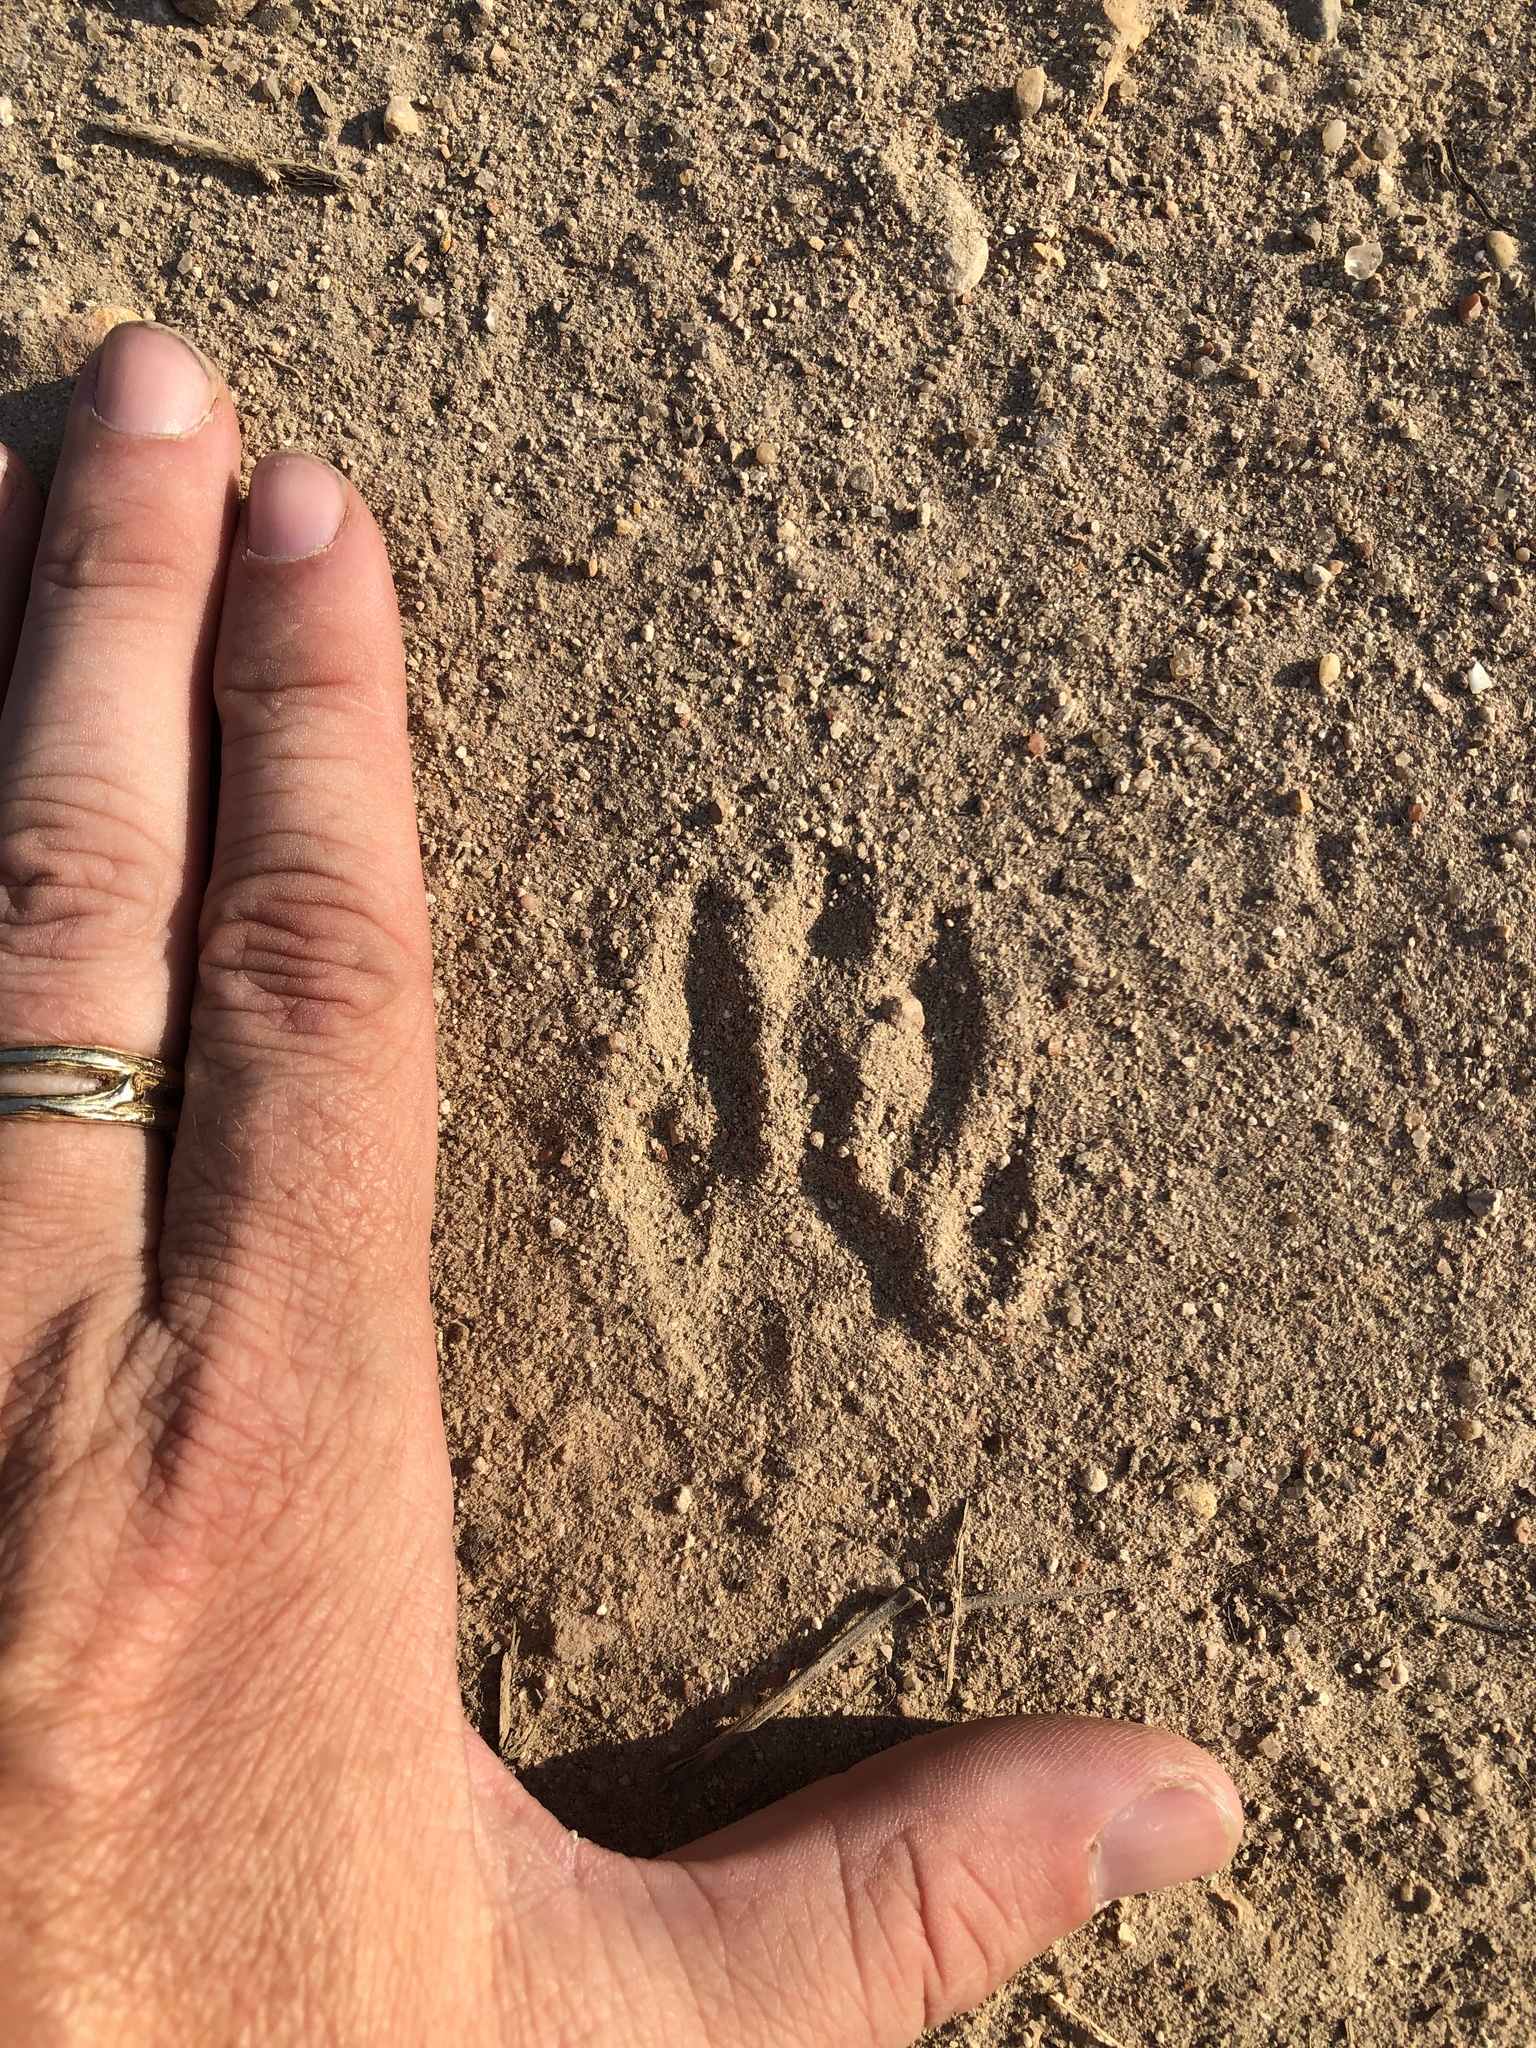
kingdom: Animalia
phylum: Chordata
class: Mammalia
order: Carnivora
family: Procyonidae
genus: Procyon
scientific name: Procyon lotor
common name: Raccoon
